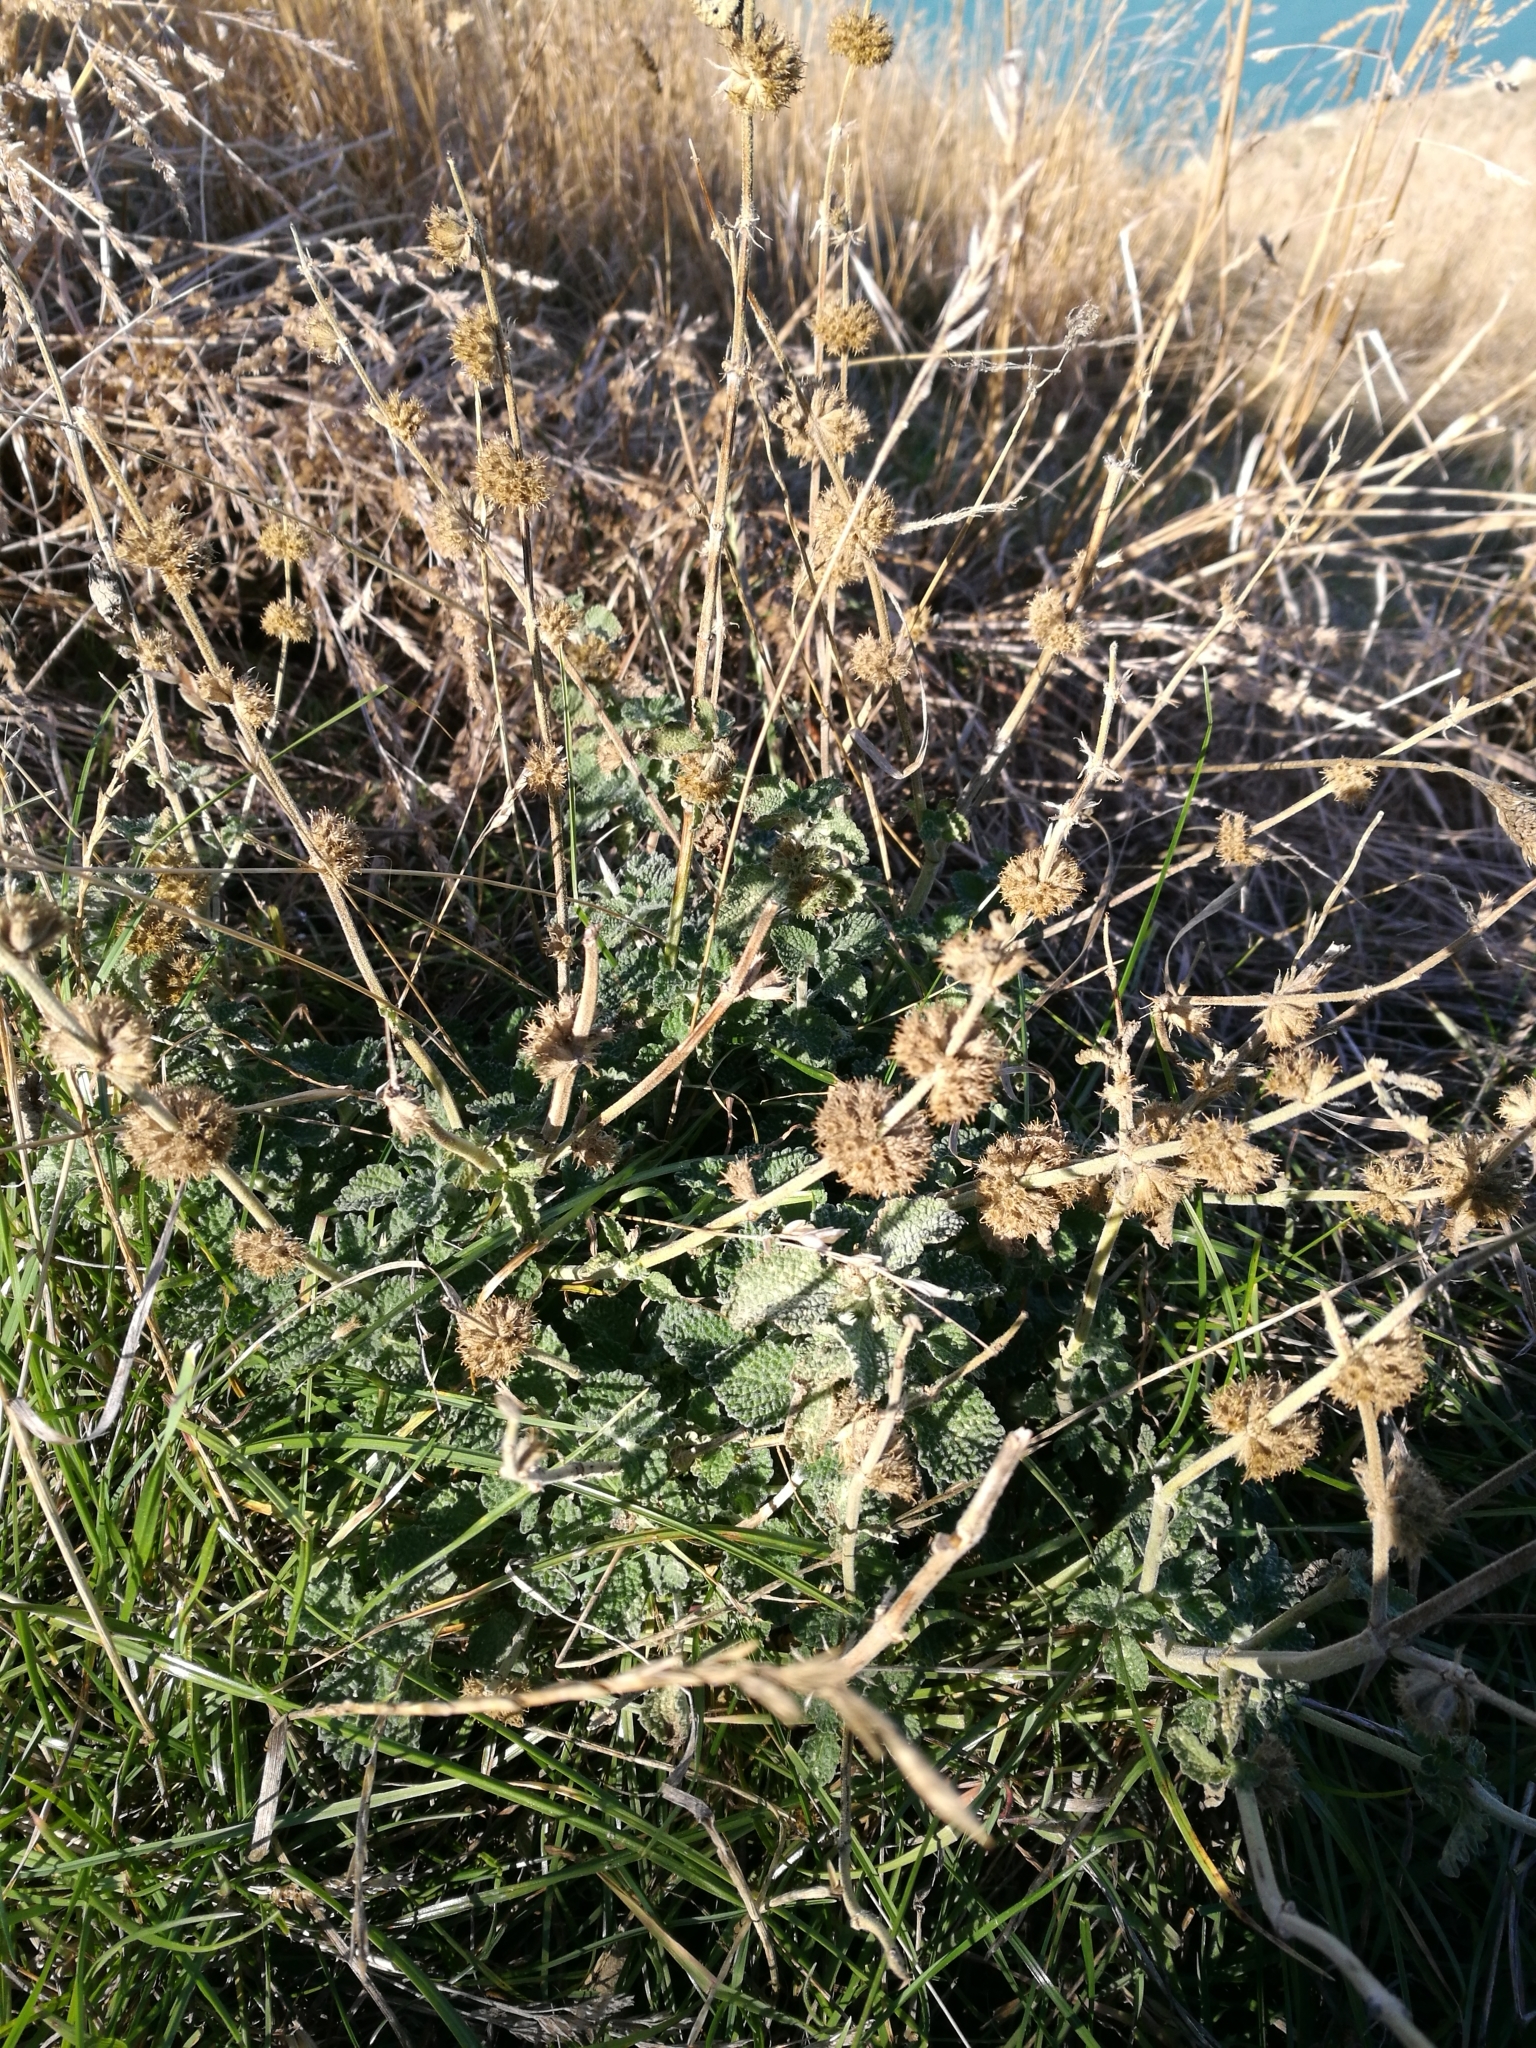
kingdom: Plantae
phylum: Tracheophyta
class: Magnoliopsida
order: Lamiales
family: Lamiaceae
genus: Marrubium
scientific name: Marrubium vulgare
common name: Horehound
